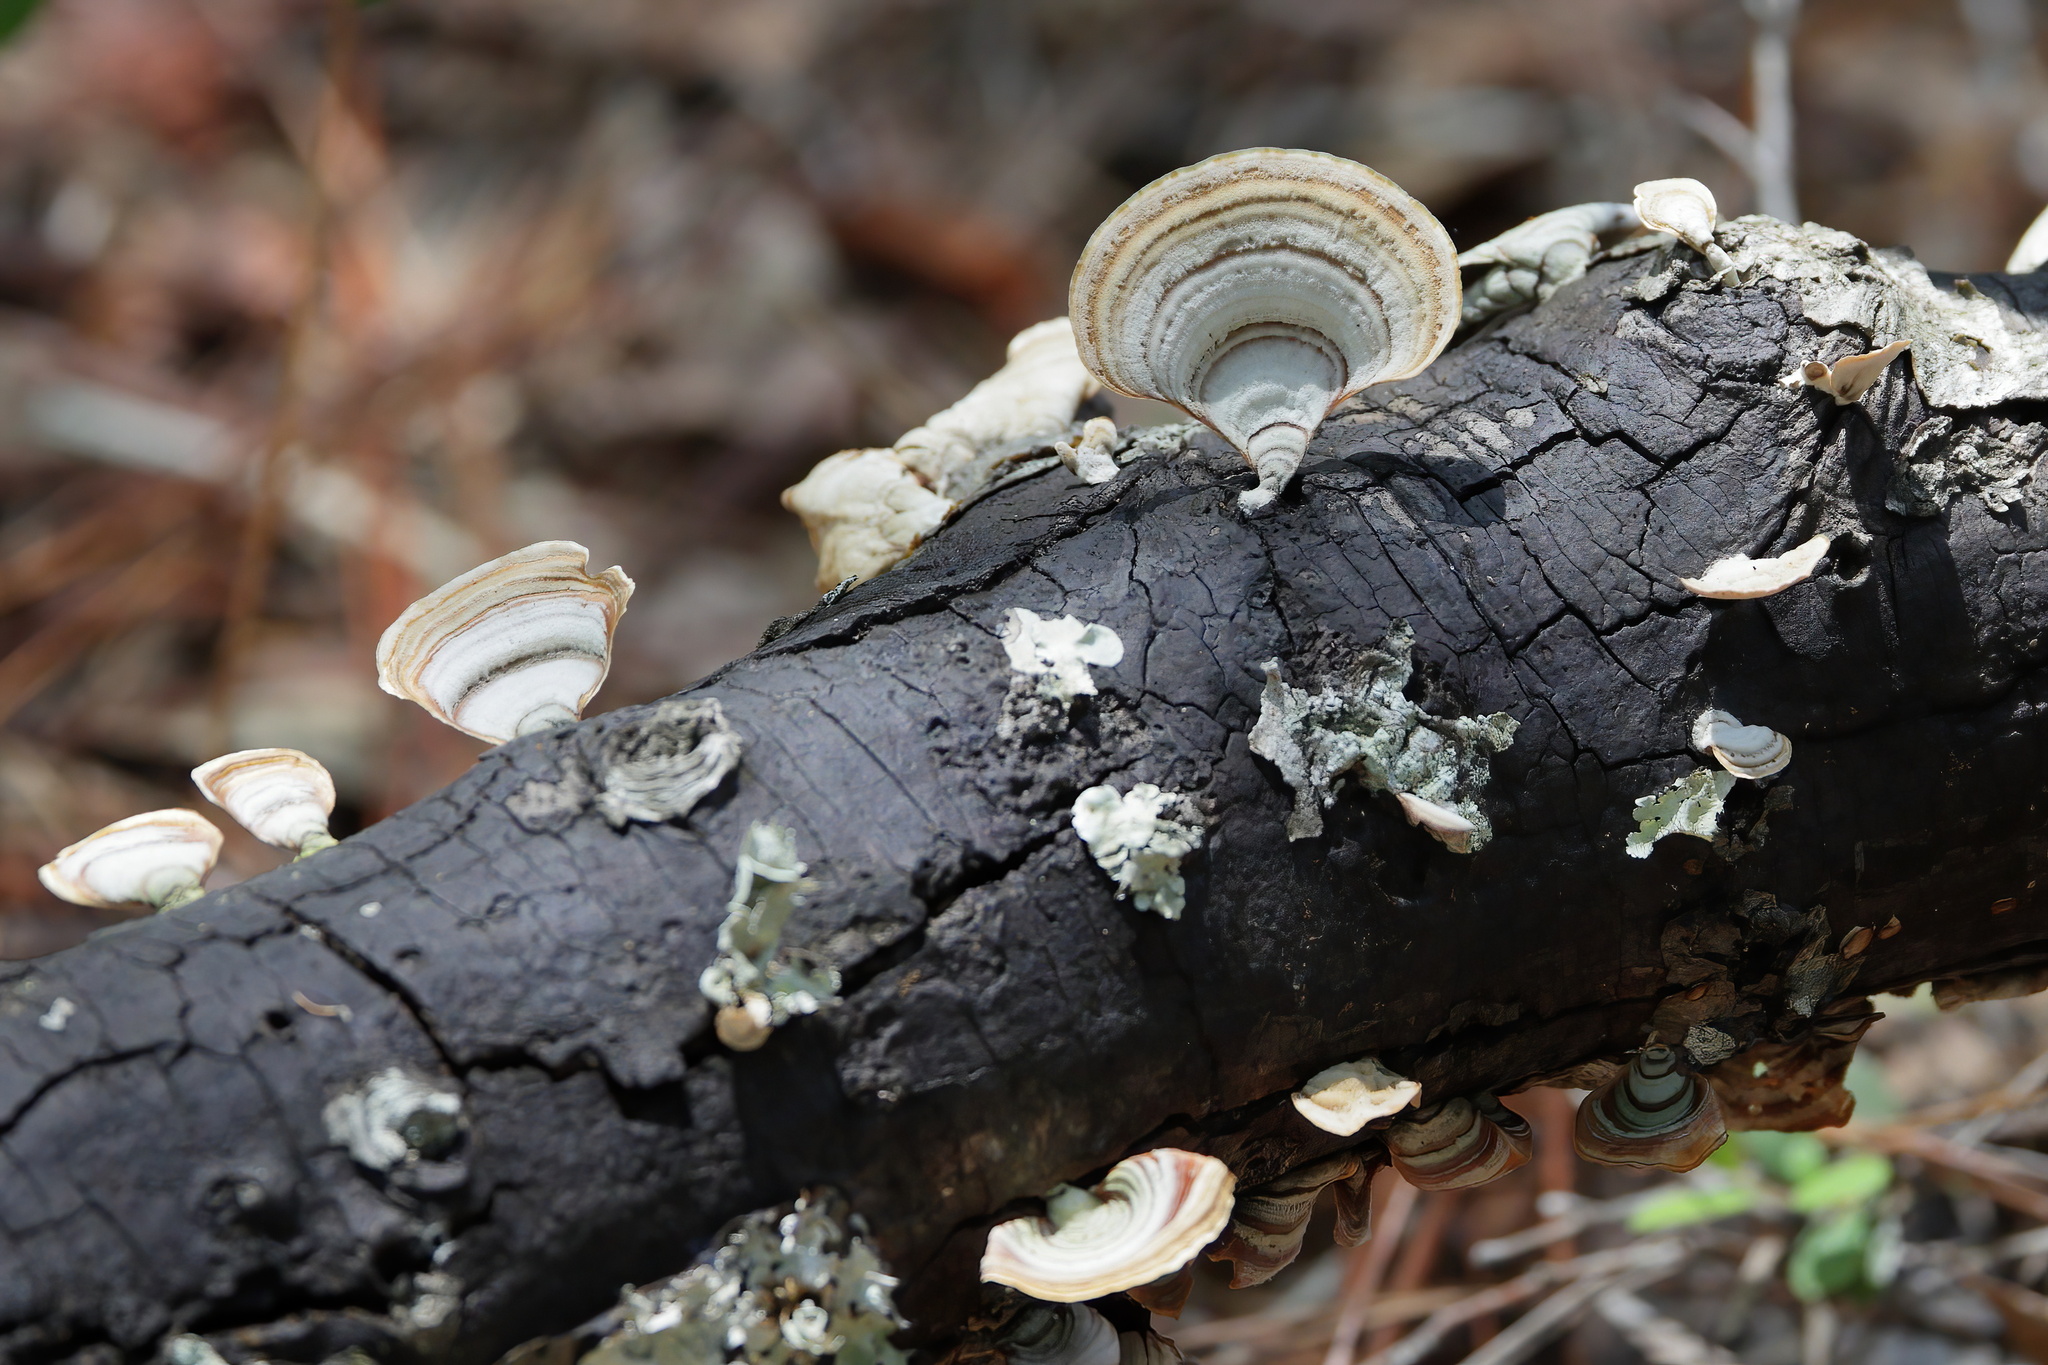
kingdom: Fungi
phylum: Basidiomycota
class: Agaricomycetes
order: Russulales
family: Stereaceae
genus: Stereum
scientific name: Stereum lobatum
